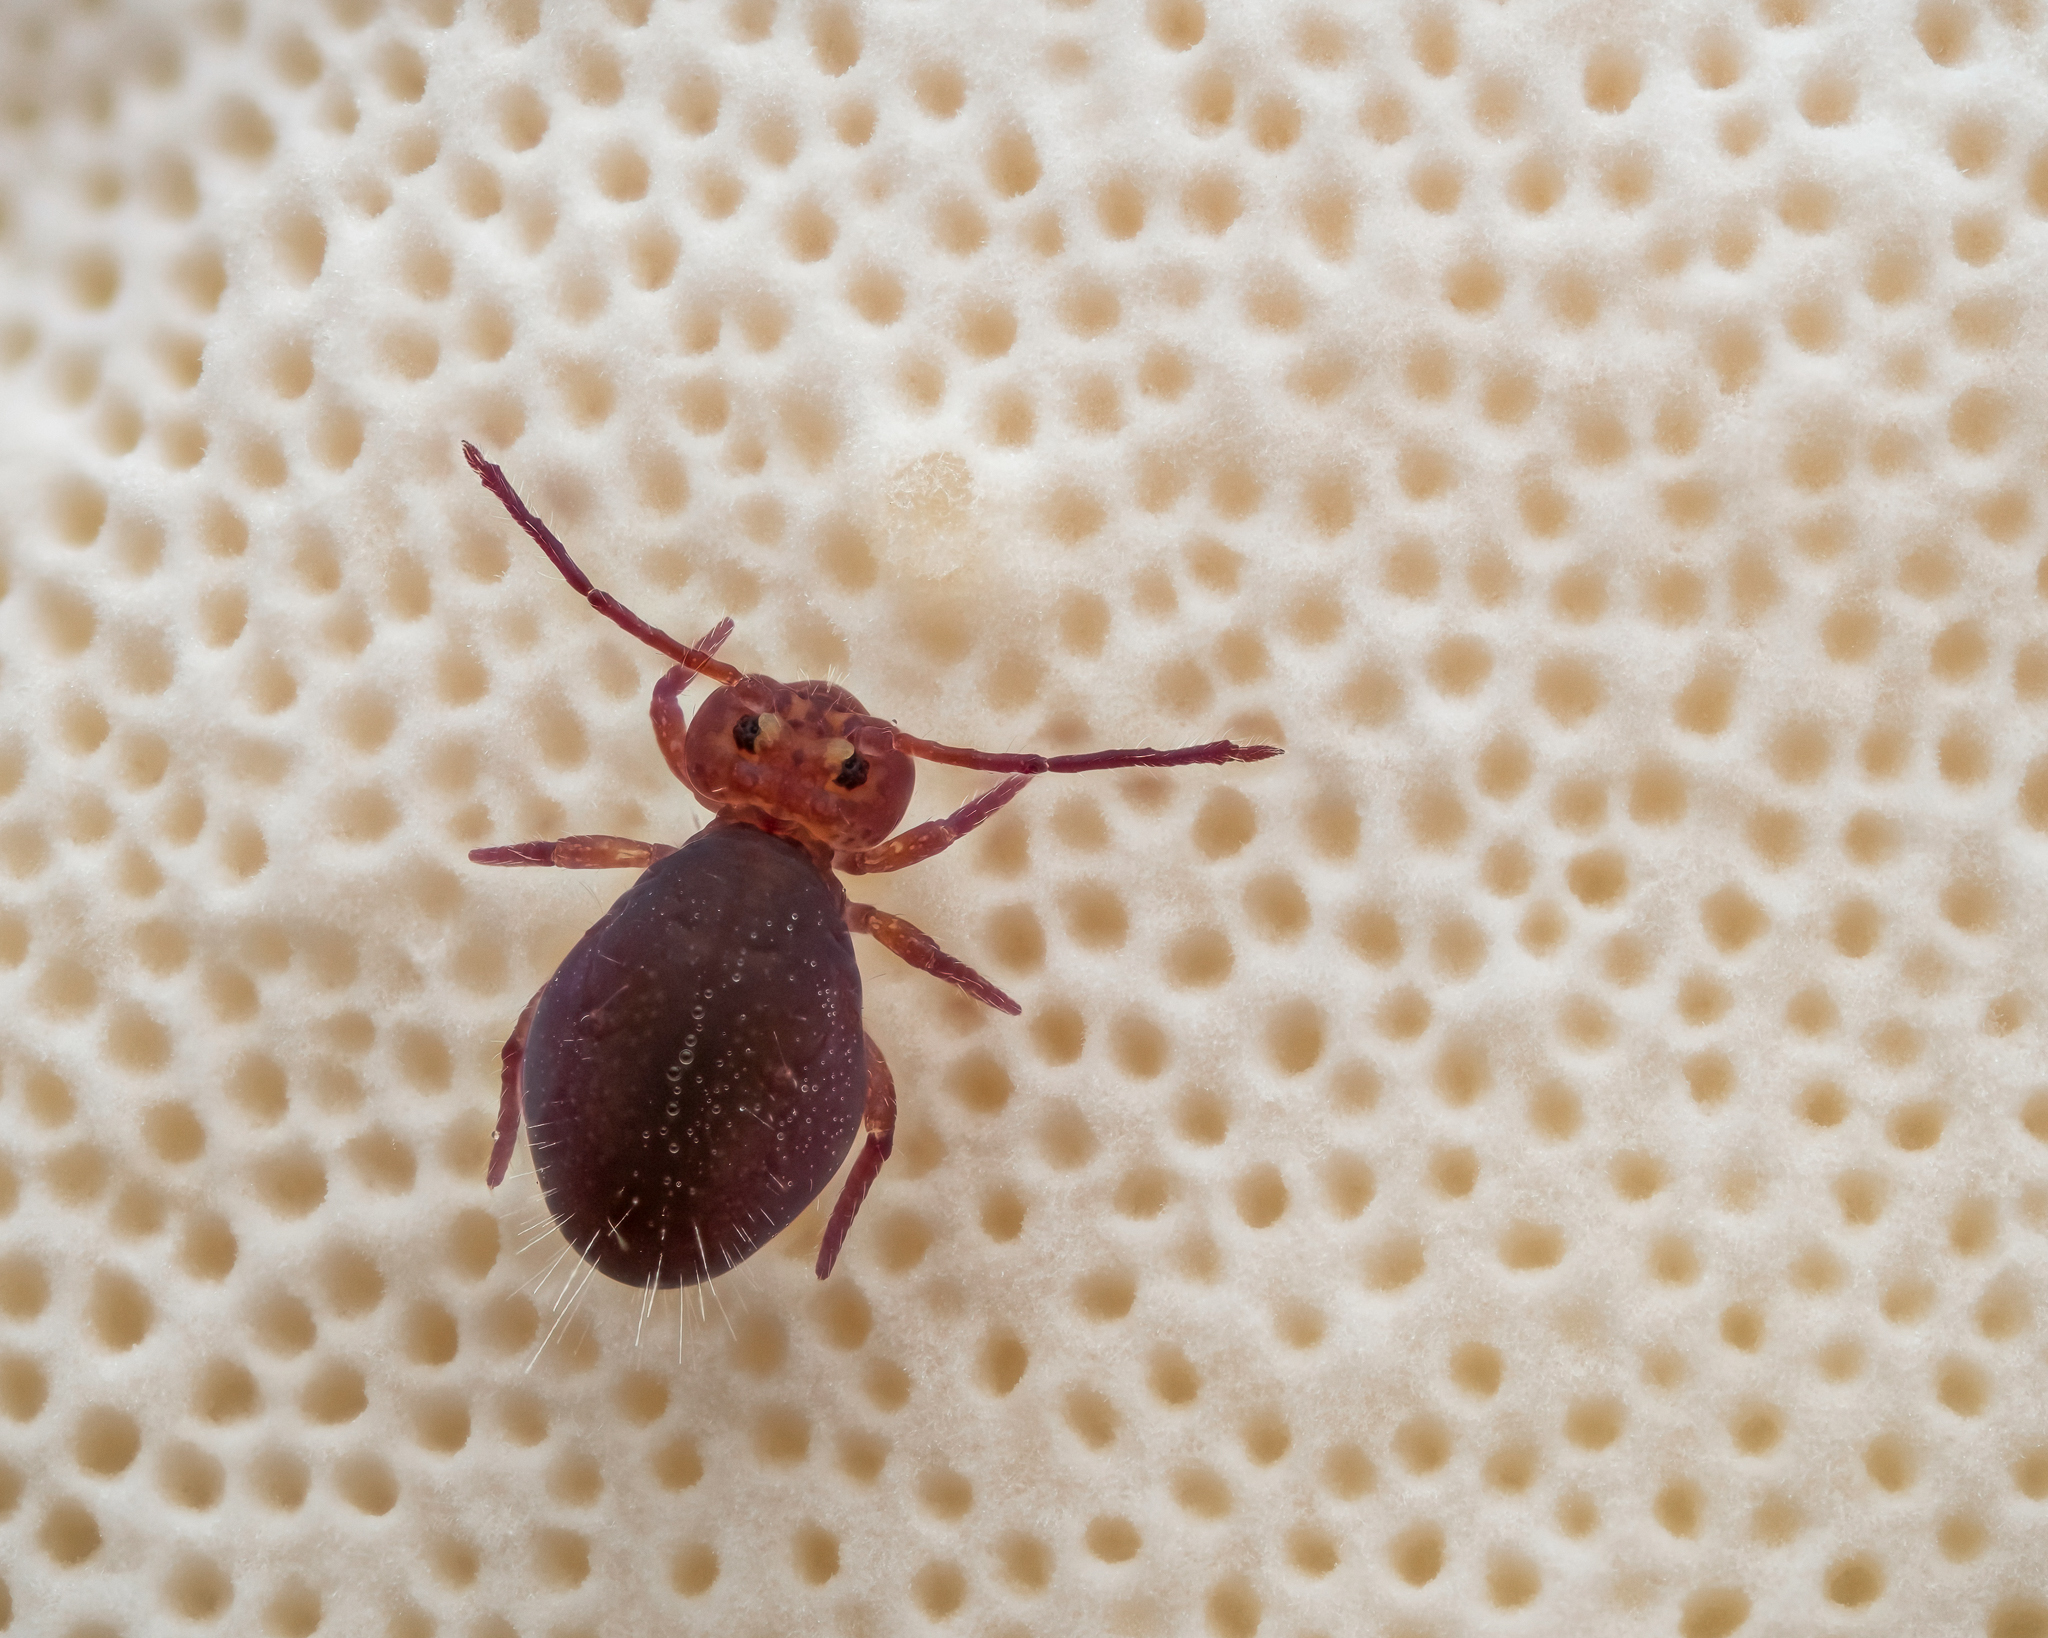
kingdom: Animalia
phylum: Arthropoda
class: Collembola
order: Symphypleona
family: Dicyrtomidae
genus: Dicyrtoma
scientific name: Dicyrtoma fusca
